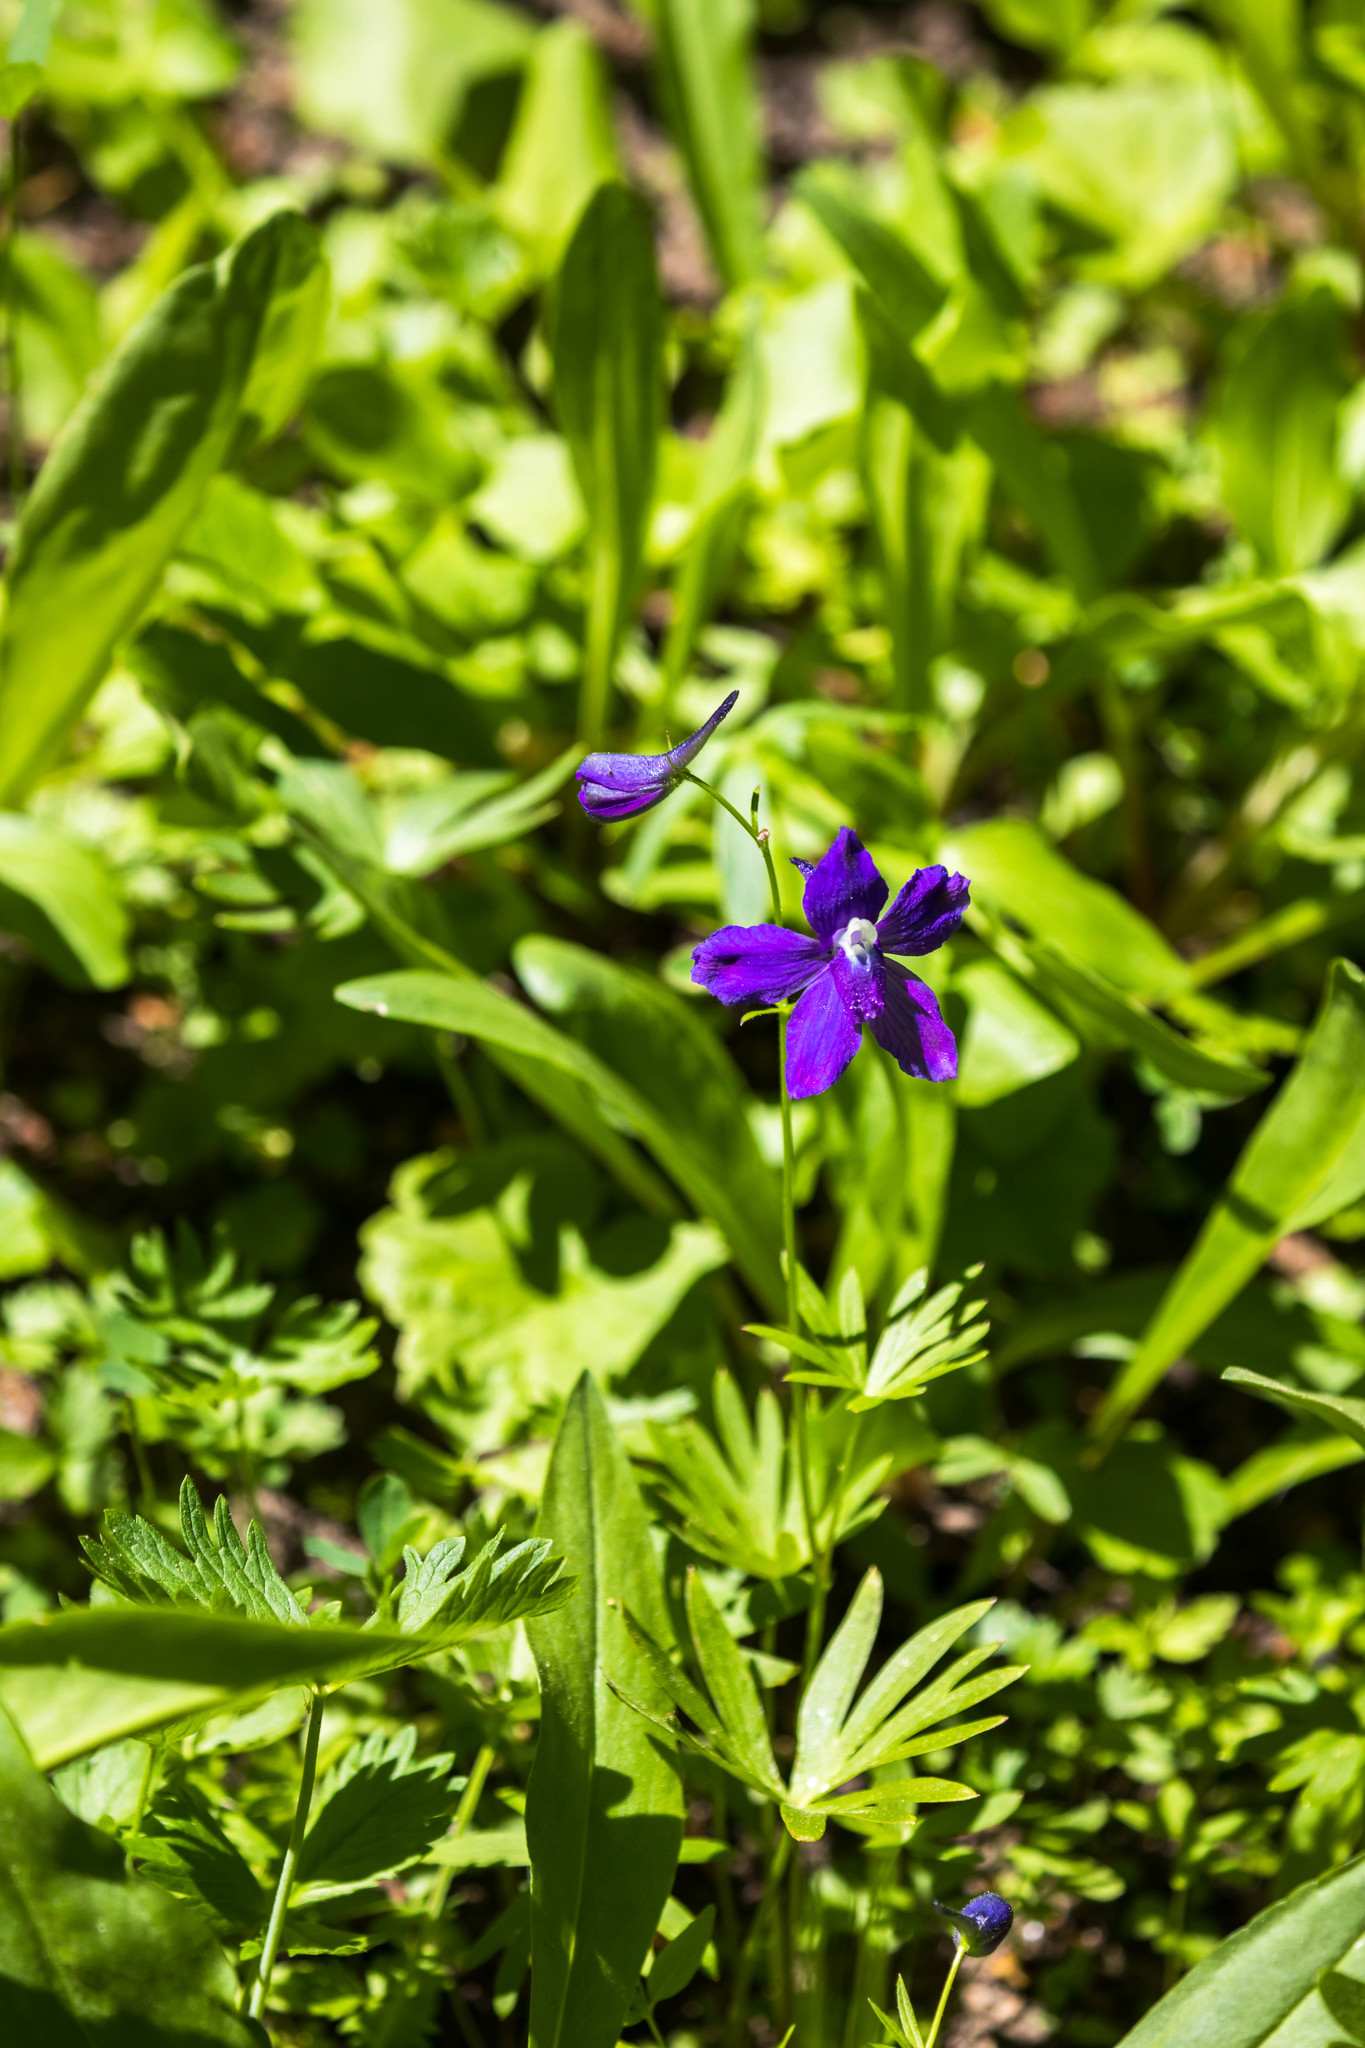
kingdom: Plantae
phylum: Tracheophyta
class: Magnoliopsida
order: Ranunculales
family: Ranunculaceae
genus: Delphinium
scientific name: Delphinium menziesii
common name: Menzies's larkspur
